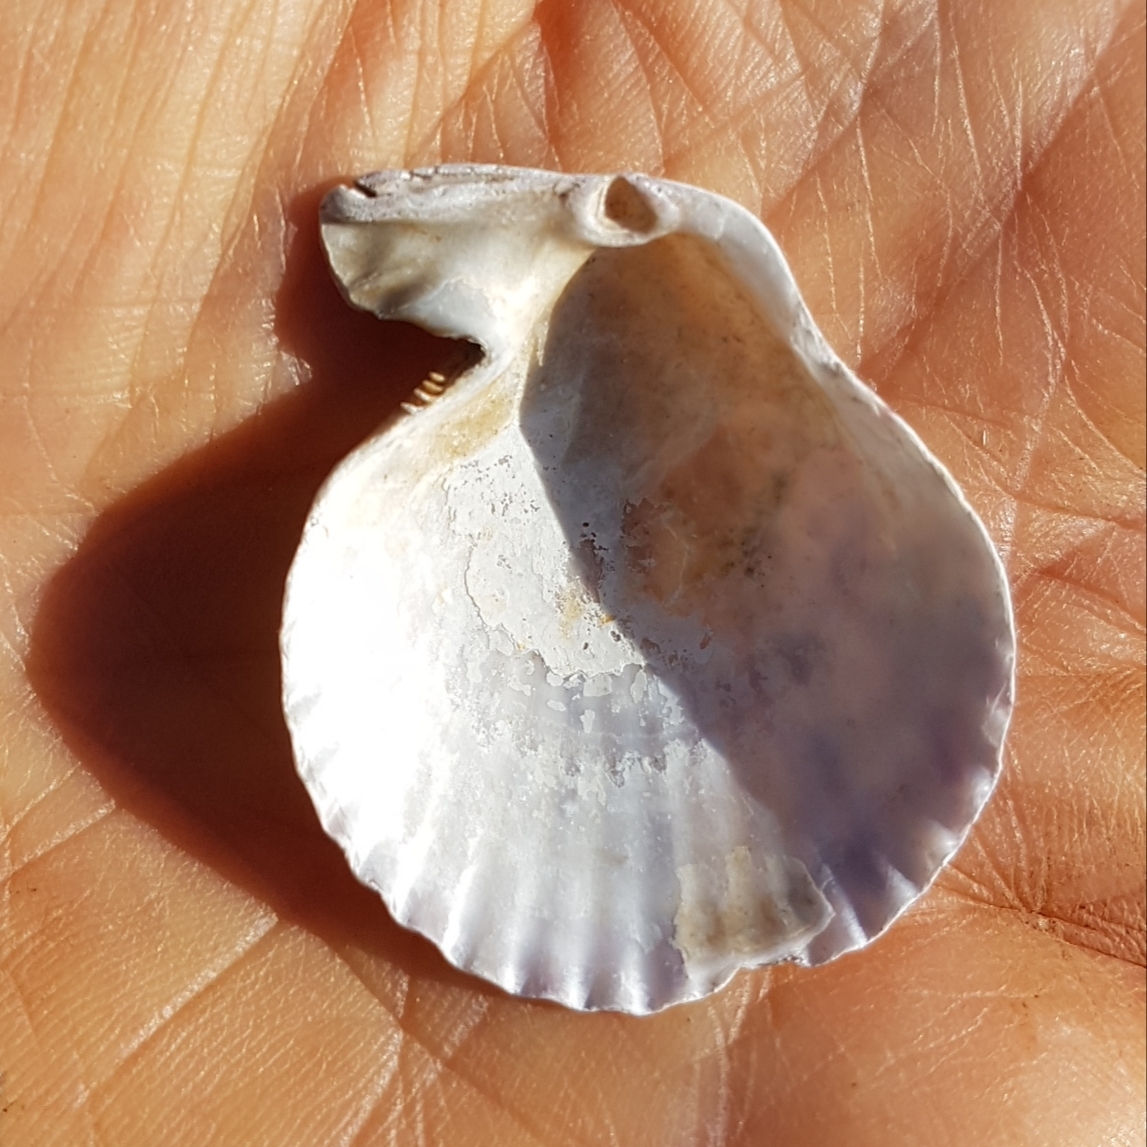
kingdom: Animalia
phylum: Mollusca
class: Bivalvia
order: Pectinida
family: Pectinidae
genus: Mimachlamys
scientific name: Mimachlamys varia
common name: Variegated scallop
